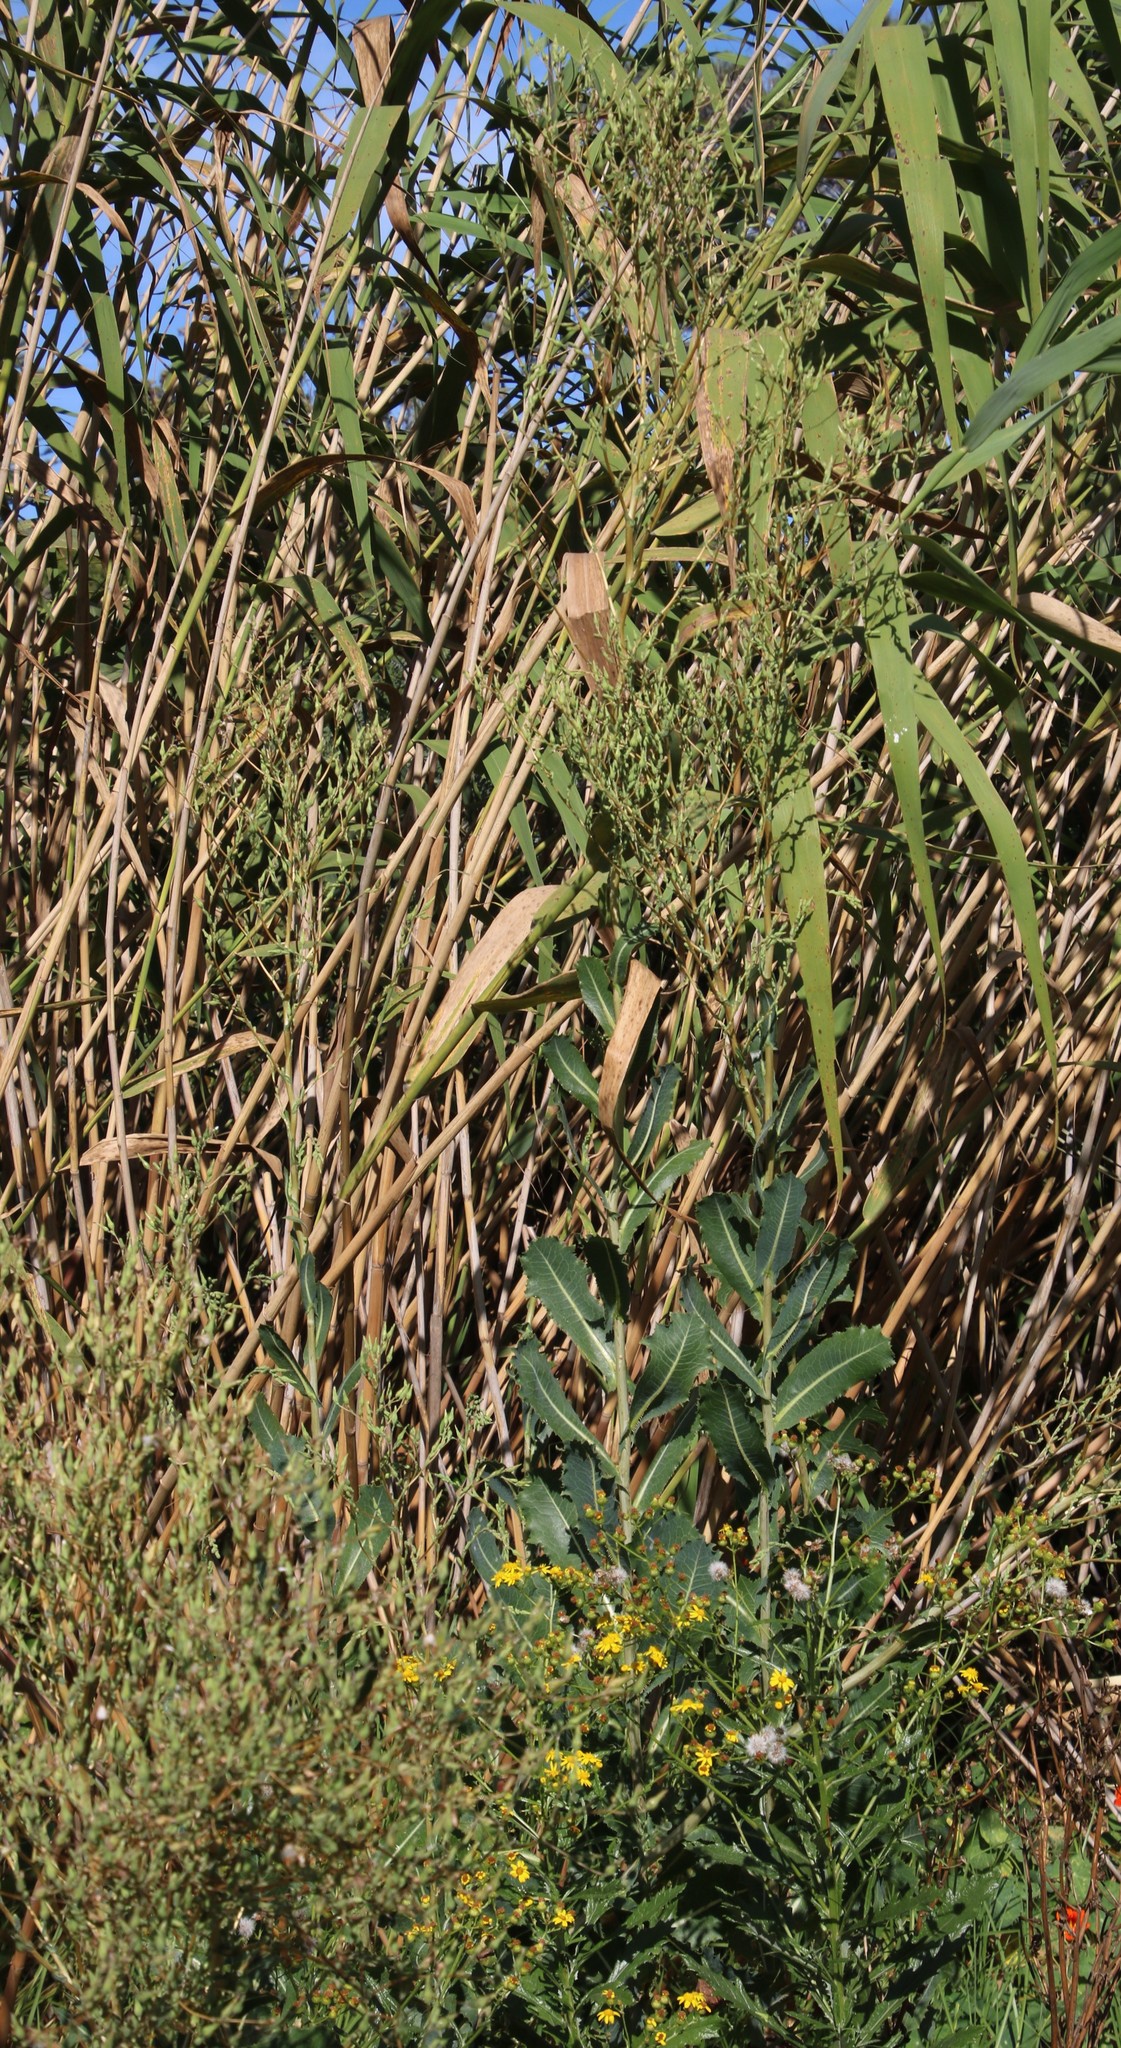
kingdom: Plantae
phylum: Tracheophyta
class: Magnoliopsida
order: Asterales
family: Asteraceae
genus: Lactuca
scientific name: Lactuca serriola
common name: Prickly lettuce
